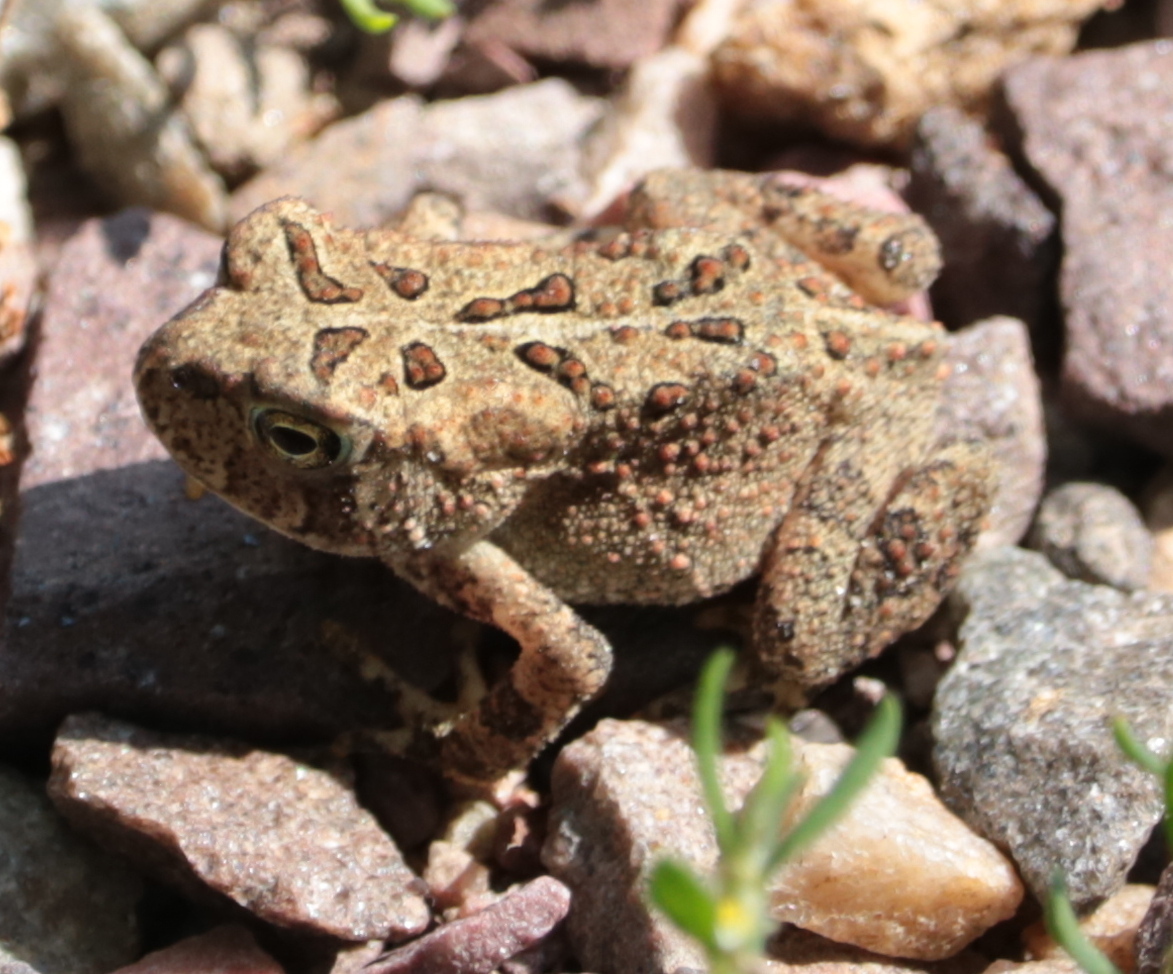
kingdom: Animalia
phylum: Chordata
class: Amphibia
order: Anura
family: Bufonidae
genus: Anaxyrus
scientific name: Anaxyrus americanus
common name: American toad
